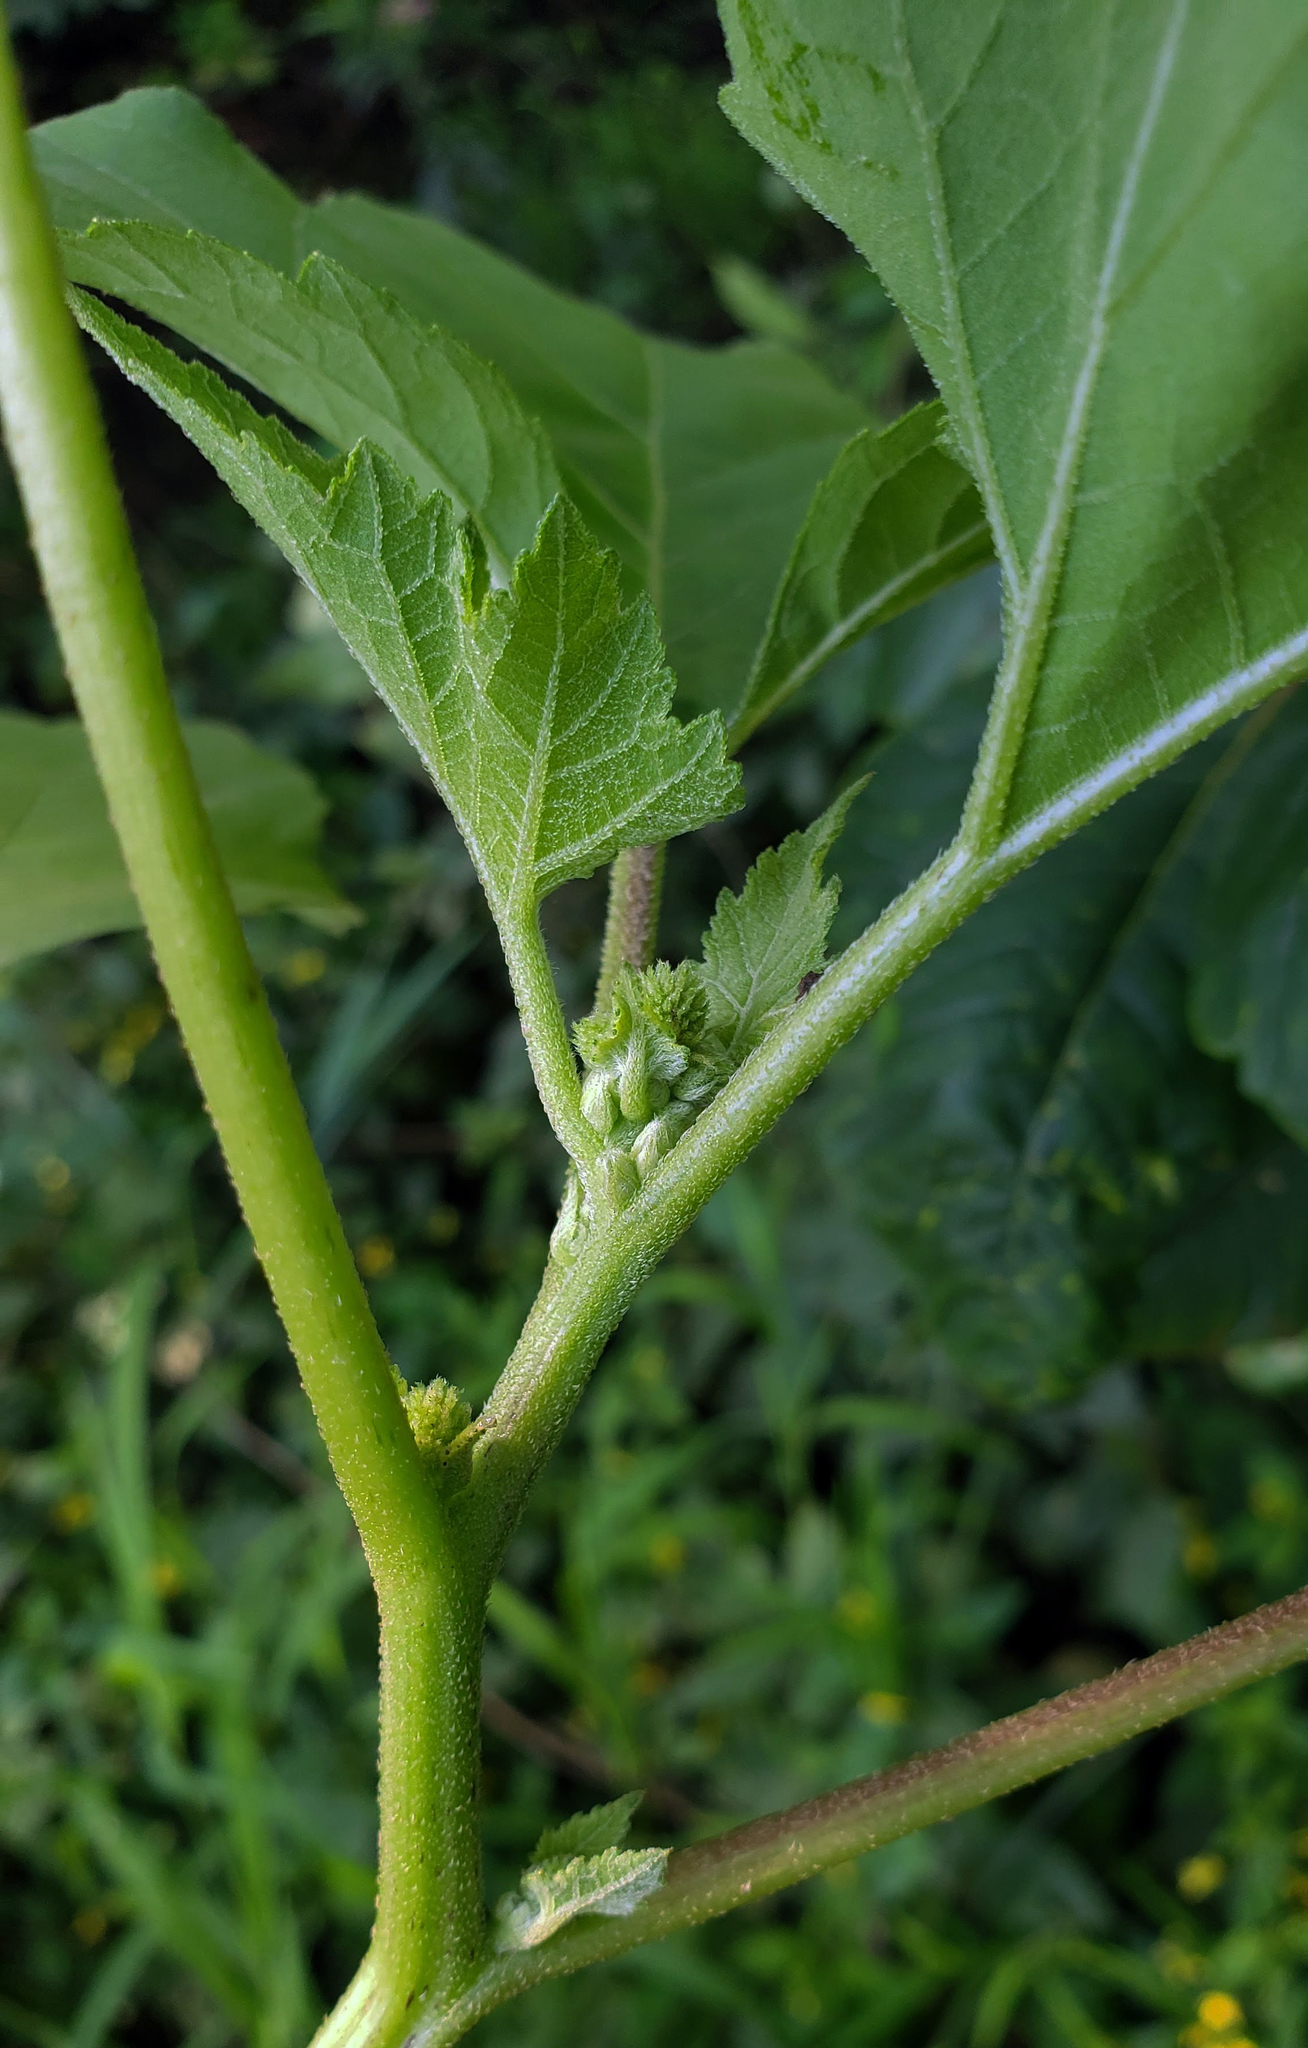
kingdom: Plantae
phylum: Tracheophyta
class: Magnoliopsida
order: Asterales
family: Asteraceae
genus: Xanthium
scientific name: Xanthium strumarium
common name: Rough cocklebur
